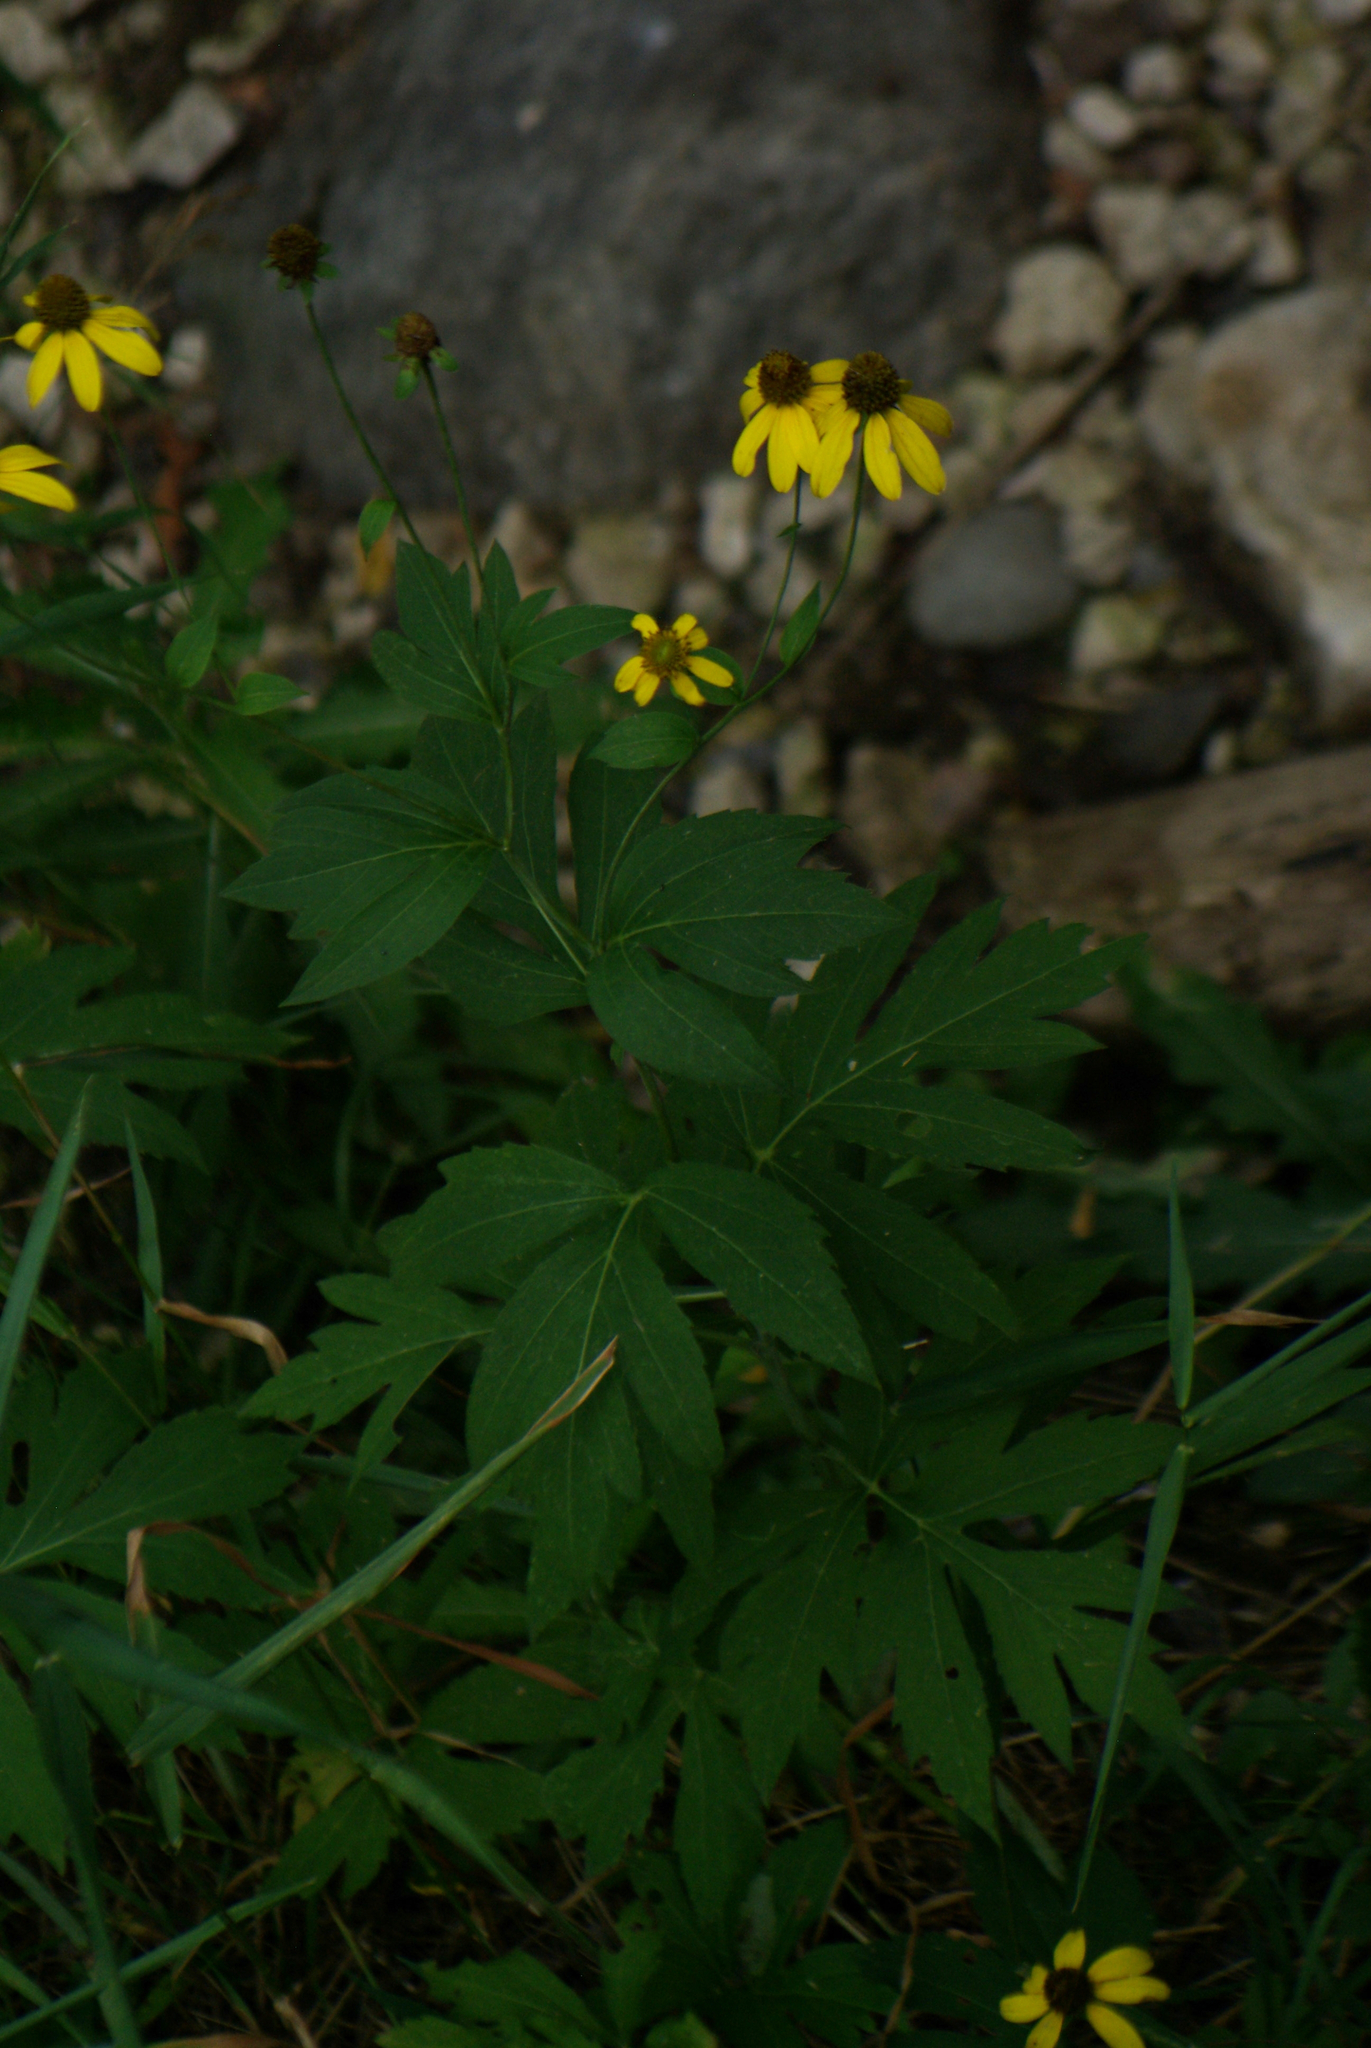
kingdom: Plantae
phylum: Tracheophyta
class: Magnoliopsida
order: Asterales
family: Asteraceae
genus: Rudbeckia
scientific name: Rudbeckia laciniata
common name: Coneflower
